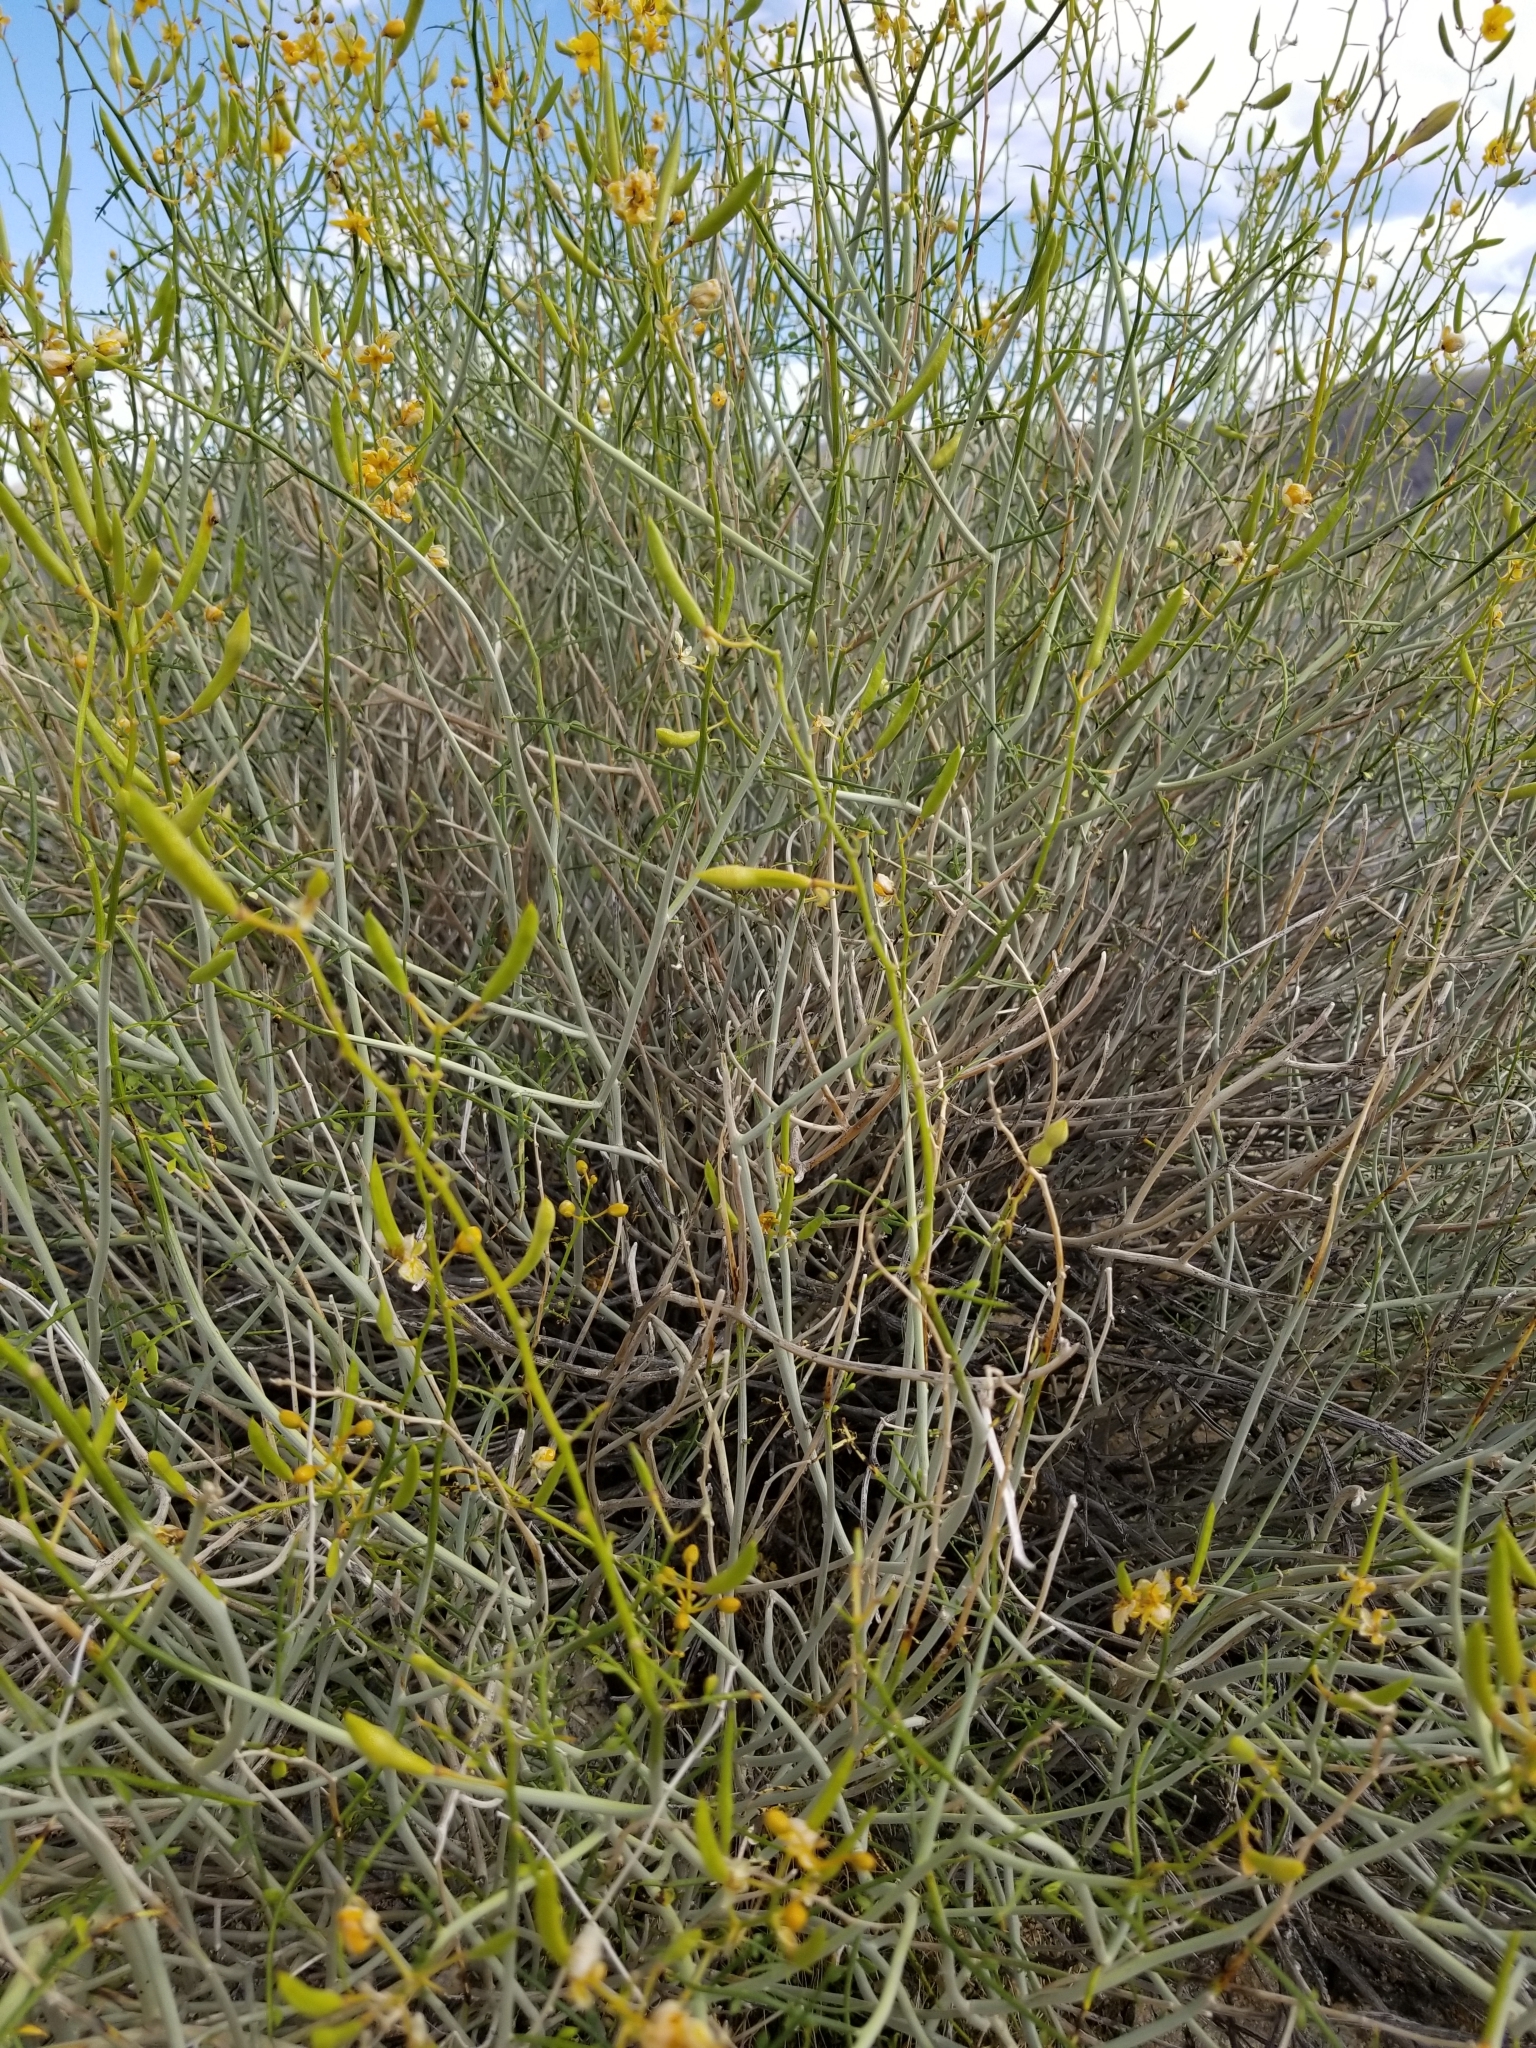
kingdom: Plantae
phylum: Tracheophyta
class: Magnoliopsida
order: Fabales
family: Fabaceae
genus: Senna
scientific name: Senna armata
